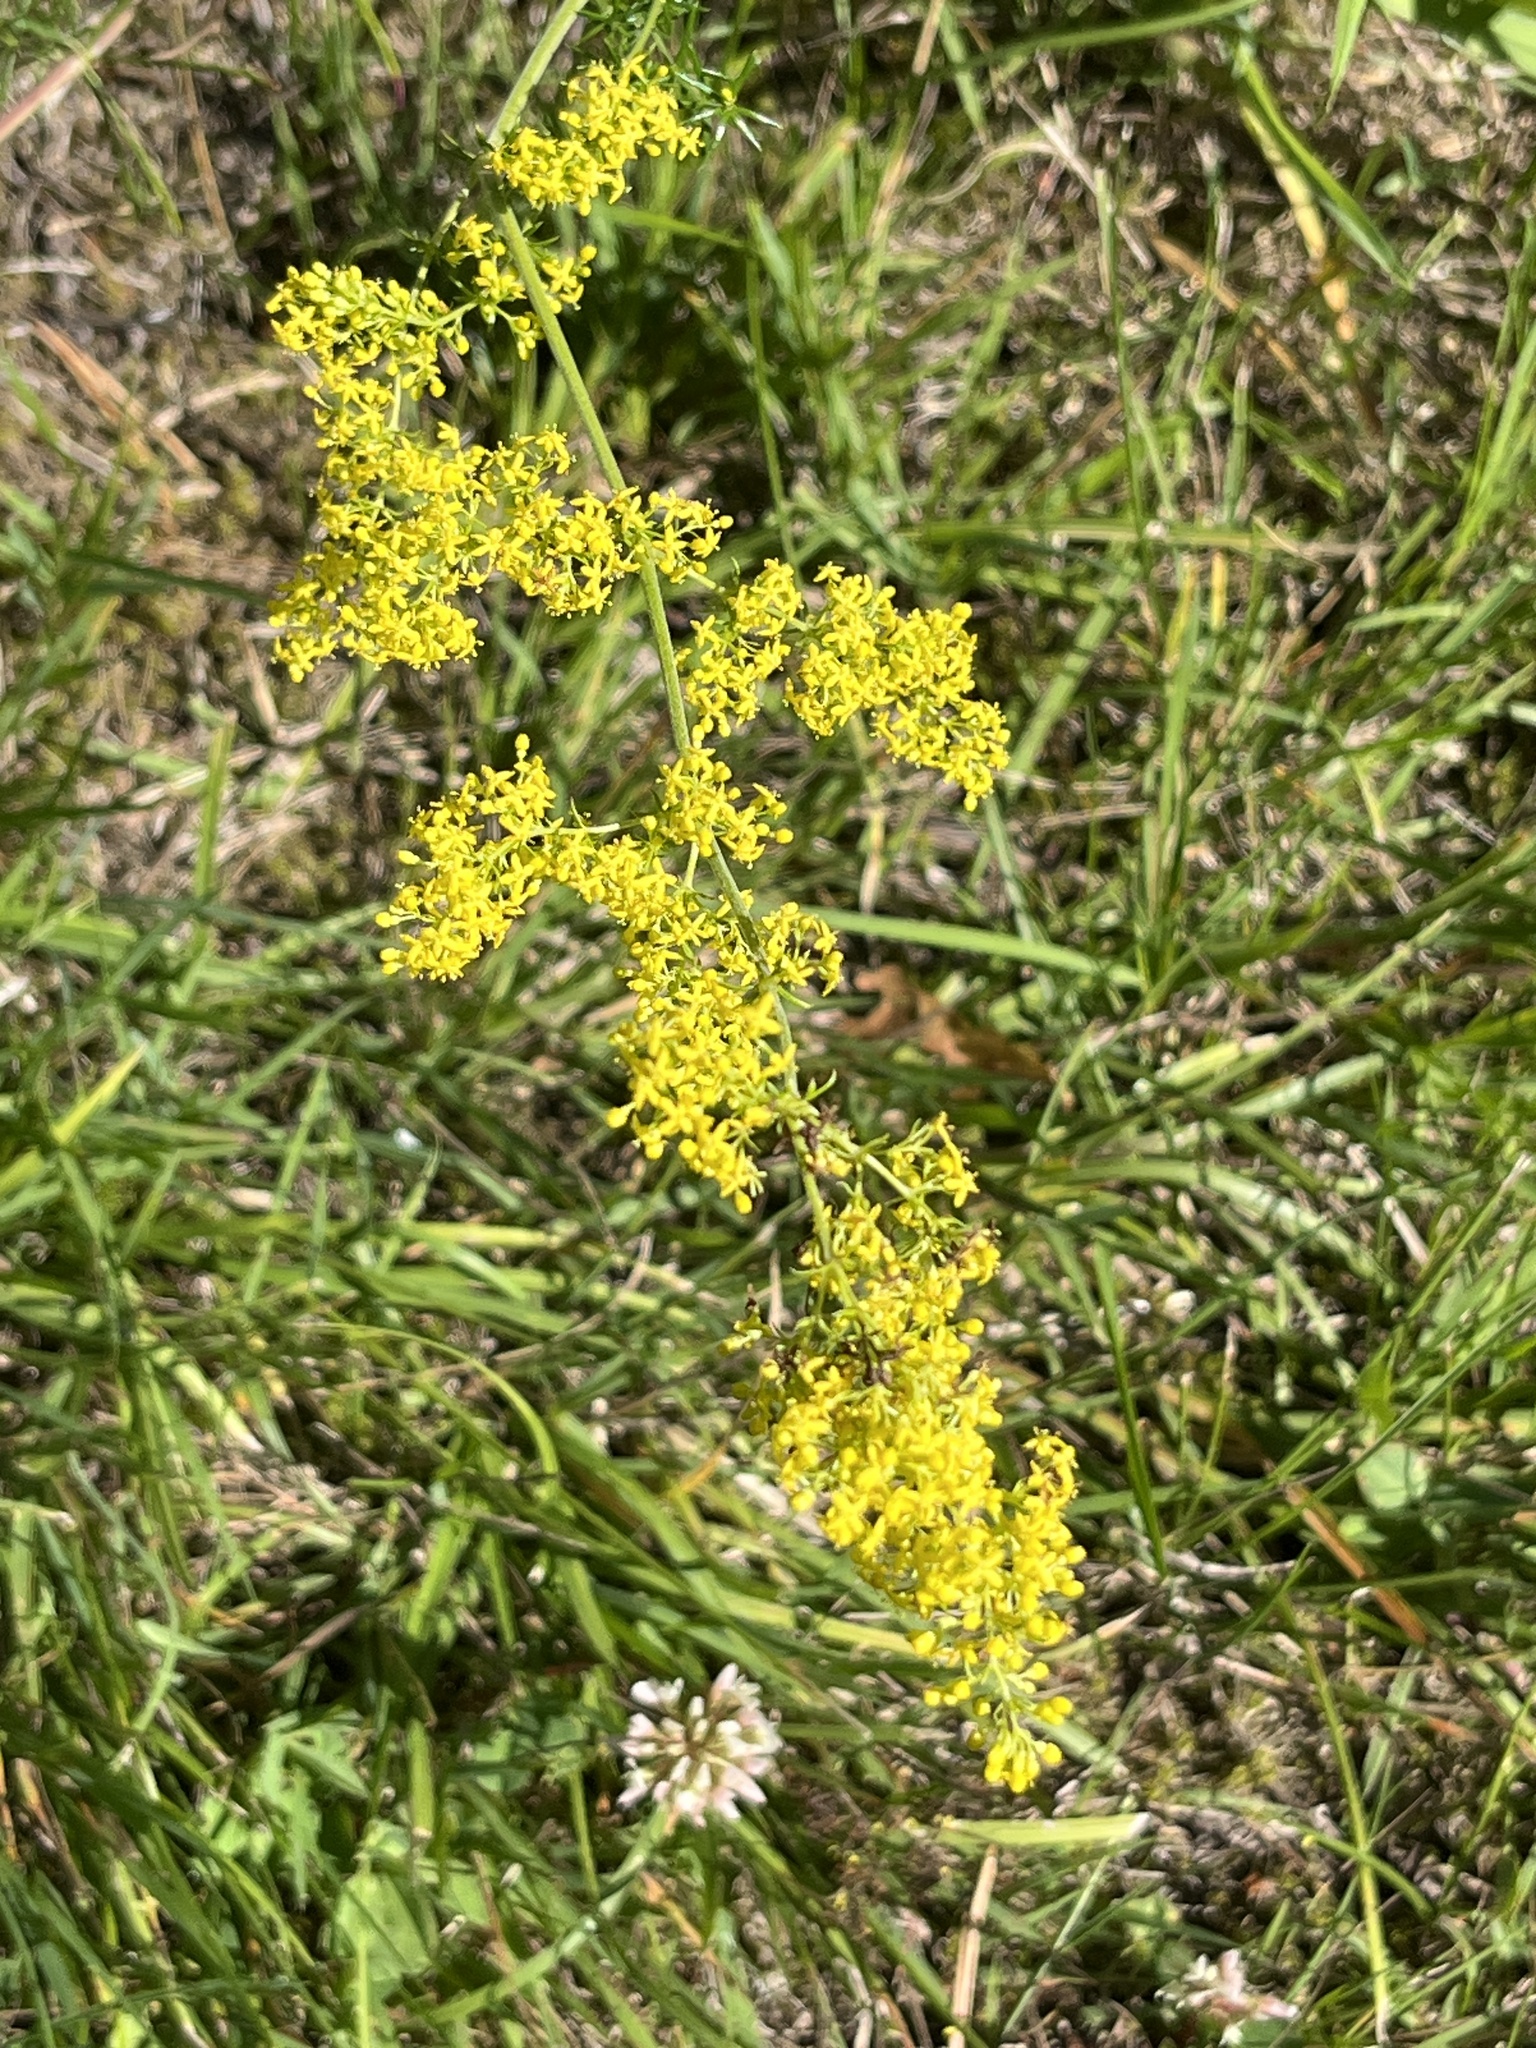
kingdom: Plantae
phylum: Tracheophyta
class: Magnoliopsida
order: Gentianales
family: Rubiaceae
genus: Galium
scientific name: Galium verum
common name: Lady's bedstraw
